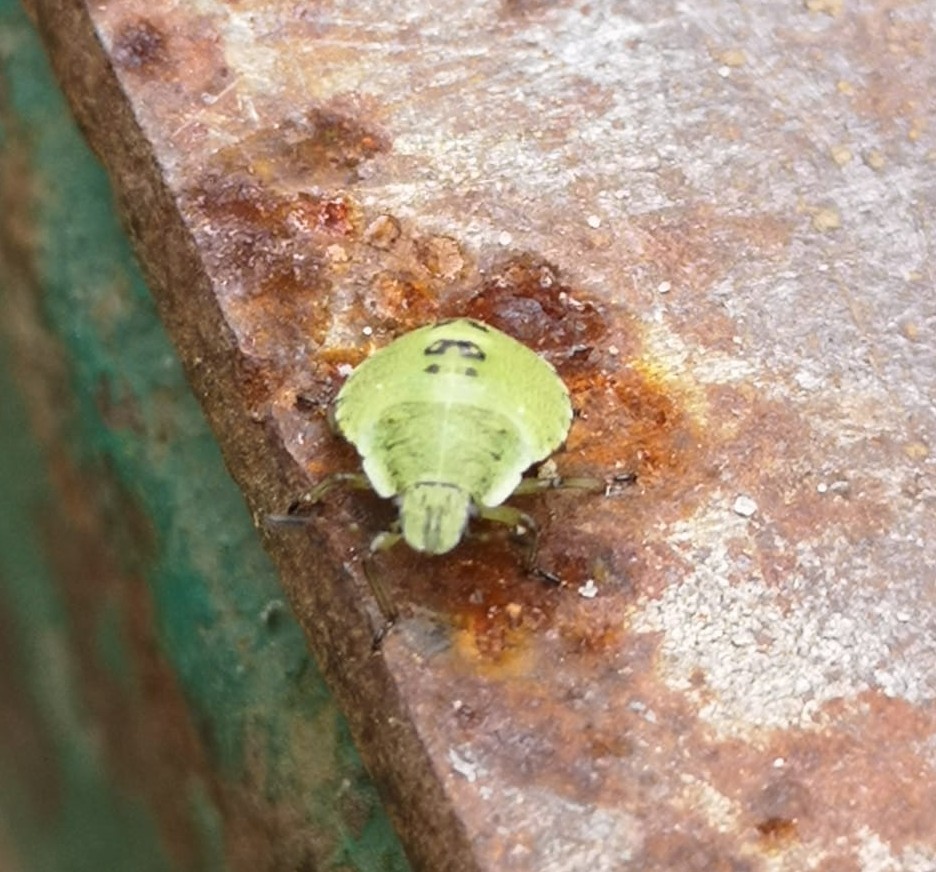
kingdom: Animalia
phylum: Arthropoda
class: Insecta
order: Hemiptera
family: Pentatomidae
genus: Palomena
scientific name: Palomena prasina
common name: Green shieldbug
